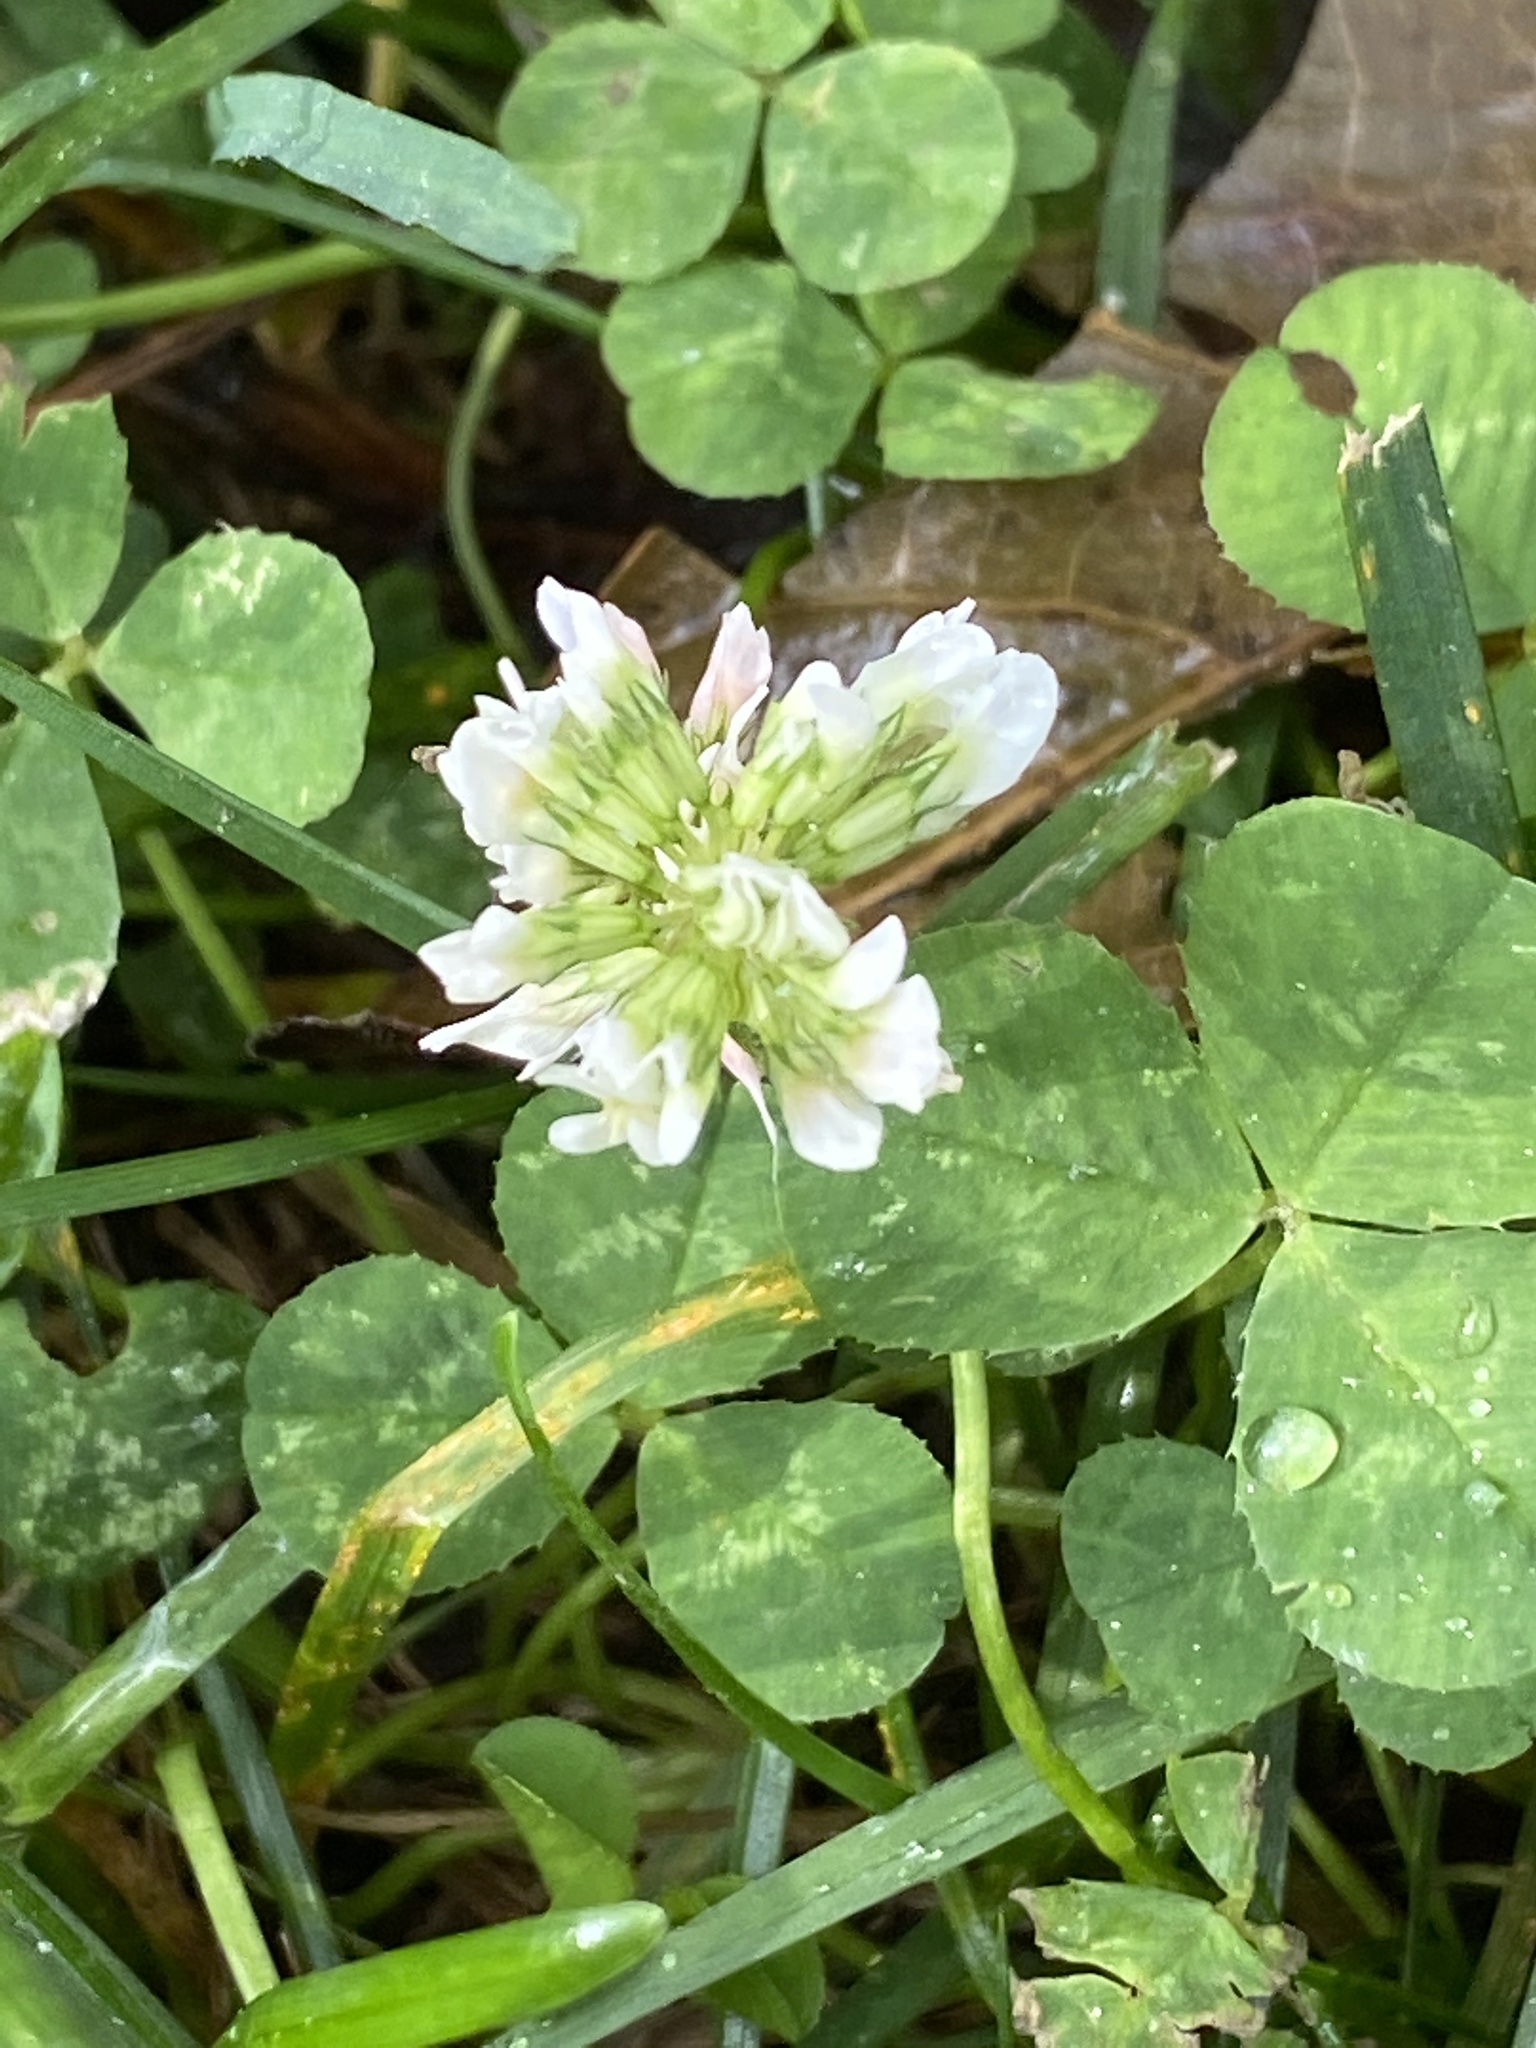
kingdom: Plantae
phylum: Tracheophyta
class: Magnoliopsida
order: Fabales
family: Fabaceae
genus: Trifolium
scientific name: Trifolium repens
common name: White clover
